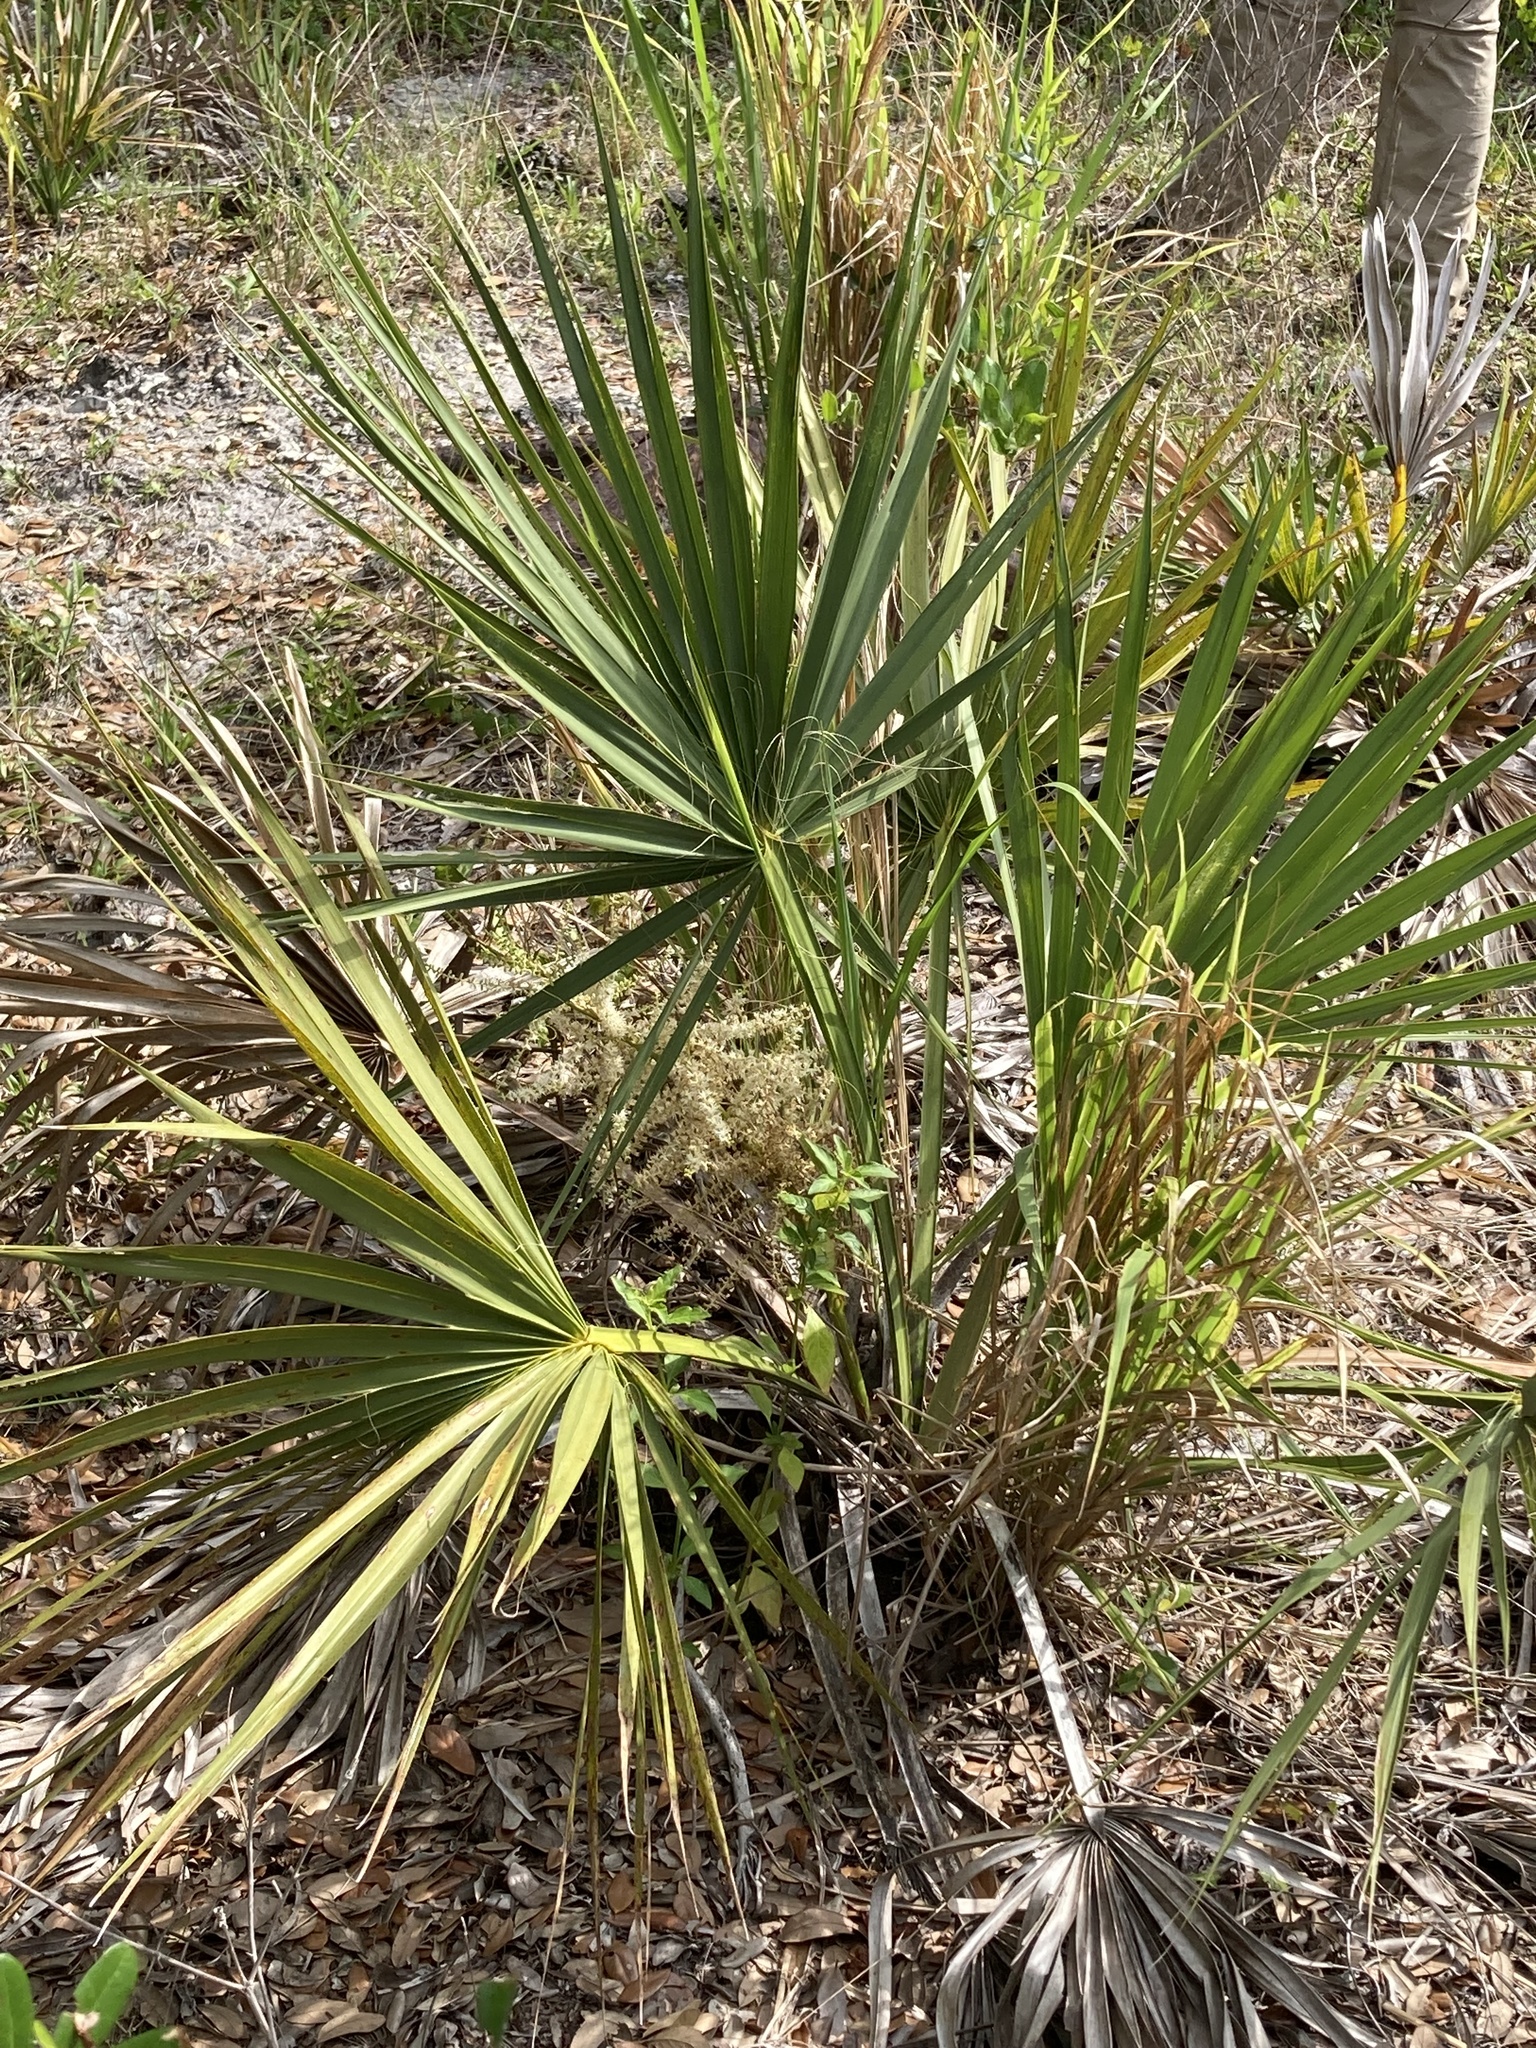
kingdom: Plantae
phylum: Tracheophyta
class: Liliopsida
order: Arecales
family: Arecaceae
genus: Sabal
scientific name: Sabal etonia
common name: Dwarf palmetto
